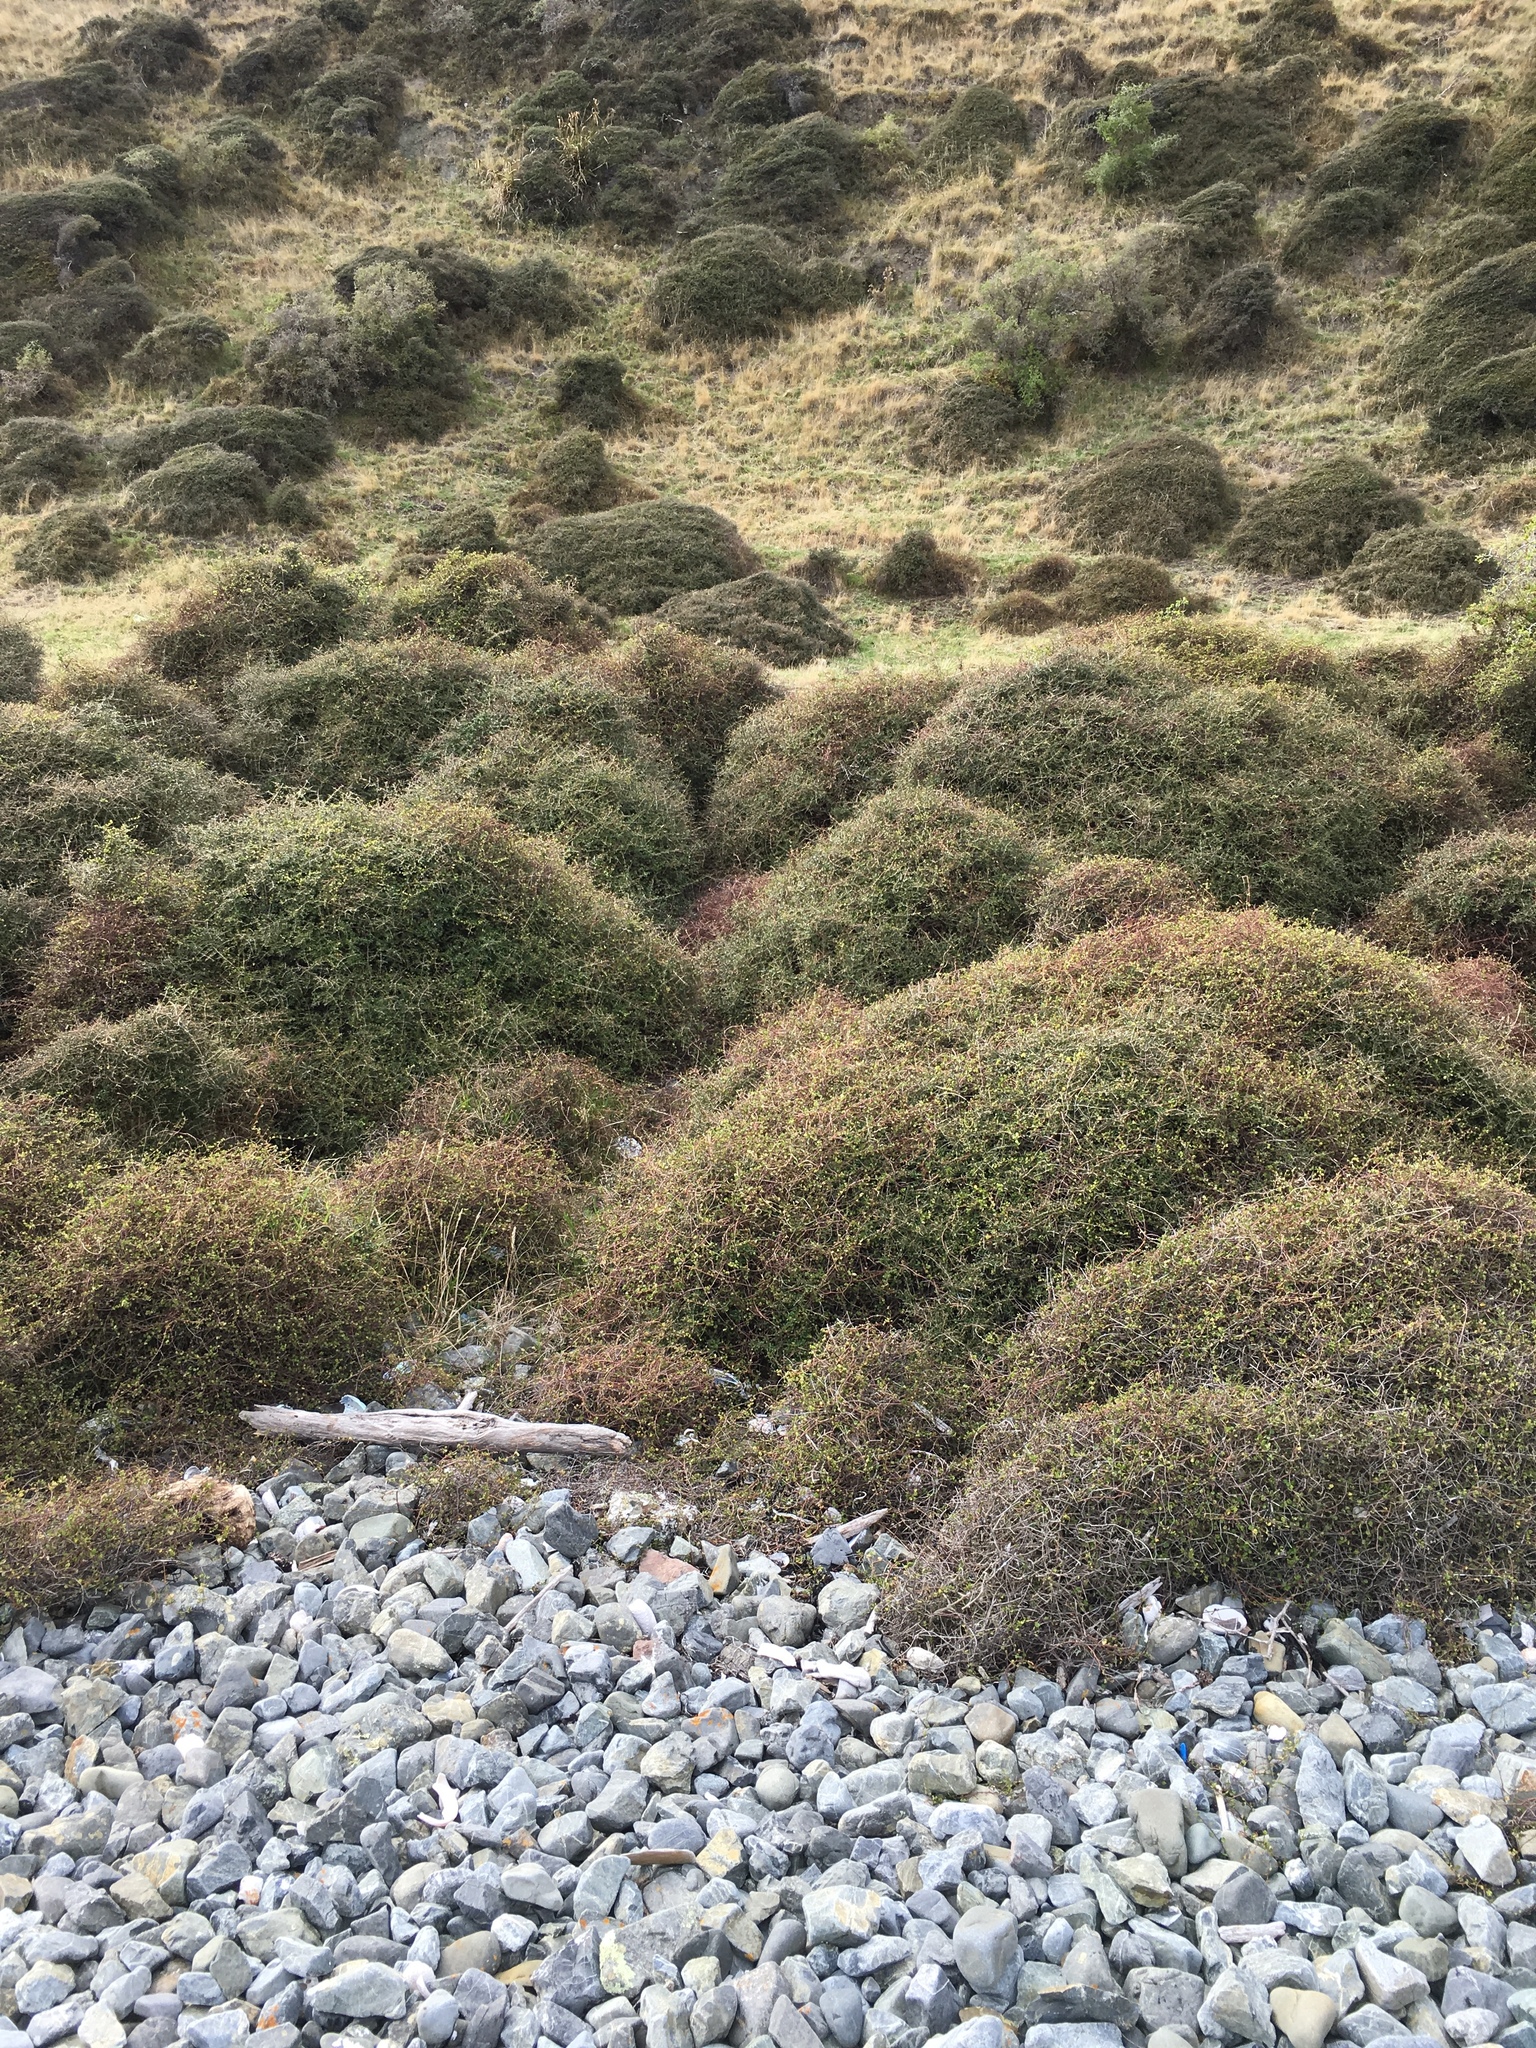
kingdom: Plantae
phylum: Tracheophyta
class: Magnoliopsida
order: Gentianales
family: Rubiaceae
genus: Coprosma
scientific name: Coprosma propinqua
